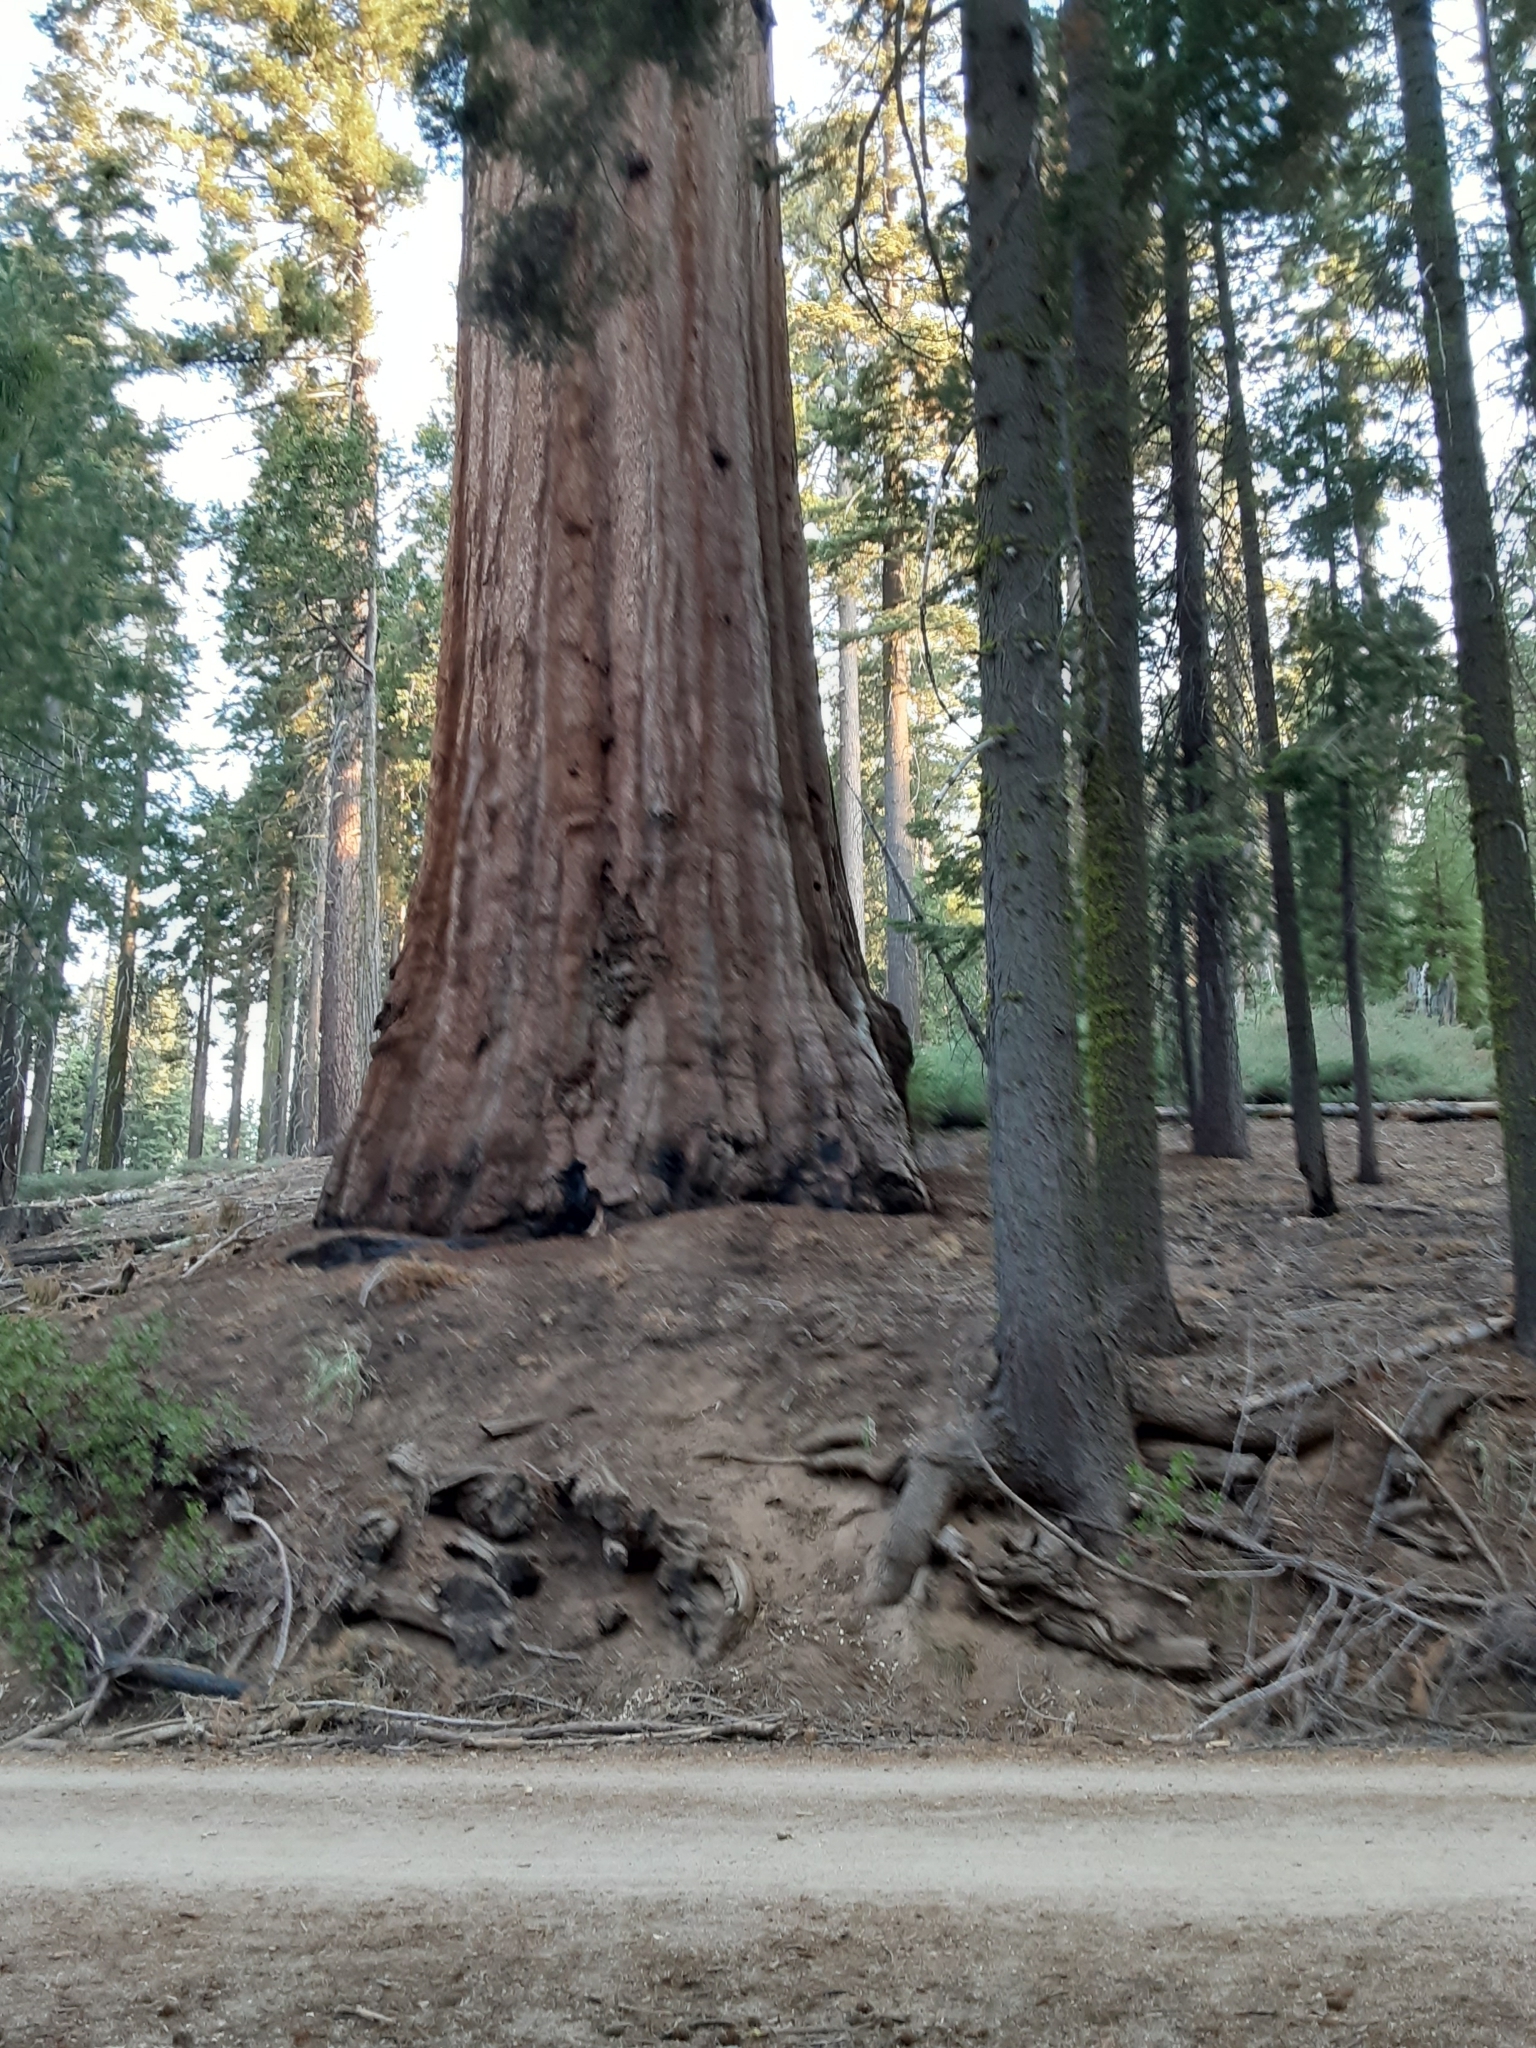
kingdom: Plantae
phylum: Tracheophyta
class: Pinopsida
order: Pinales
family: Cupressaceae
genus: Sequoiadendron
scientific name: Sequoiadendron giganteum
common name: Wellingtonia
